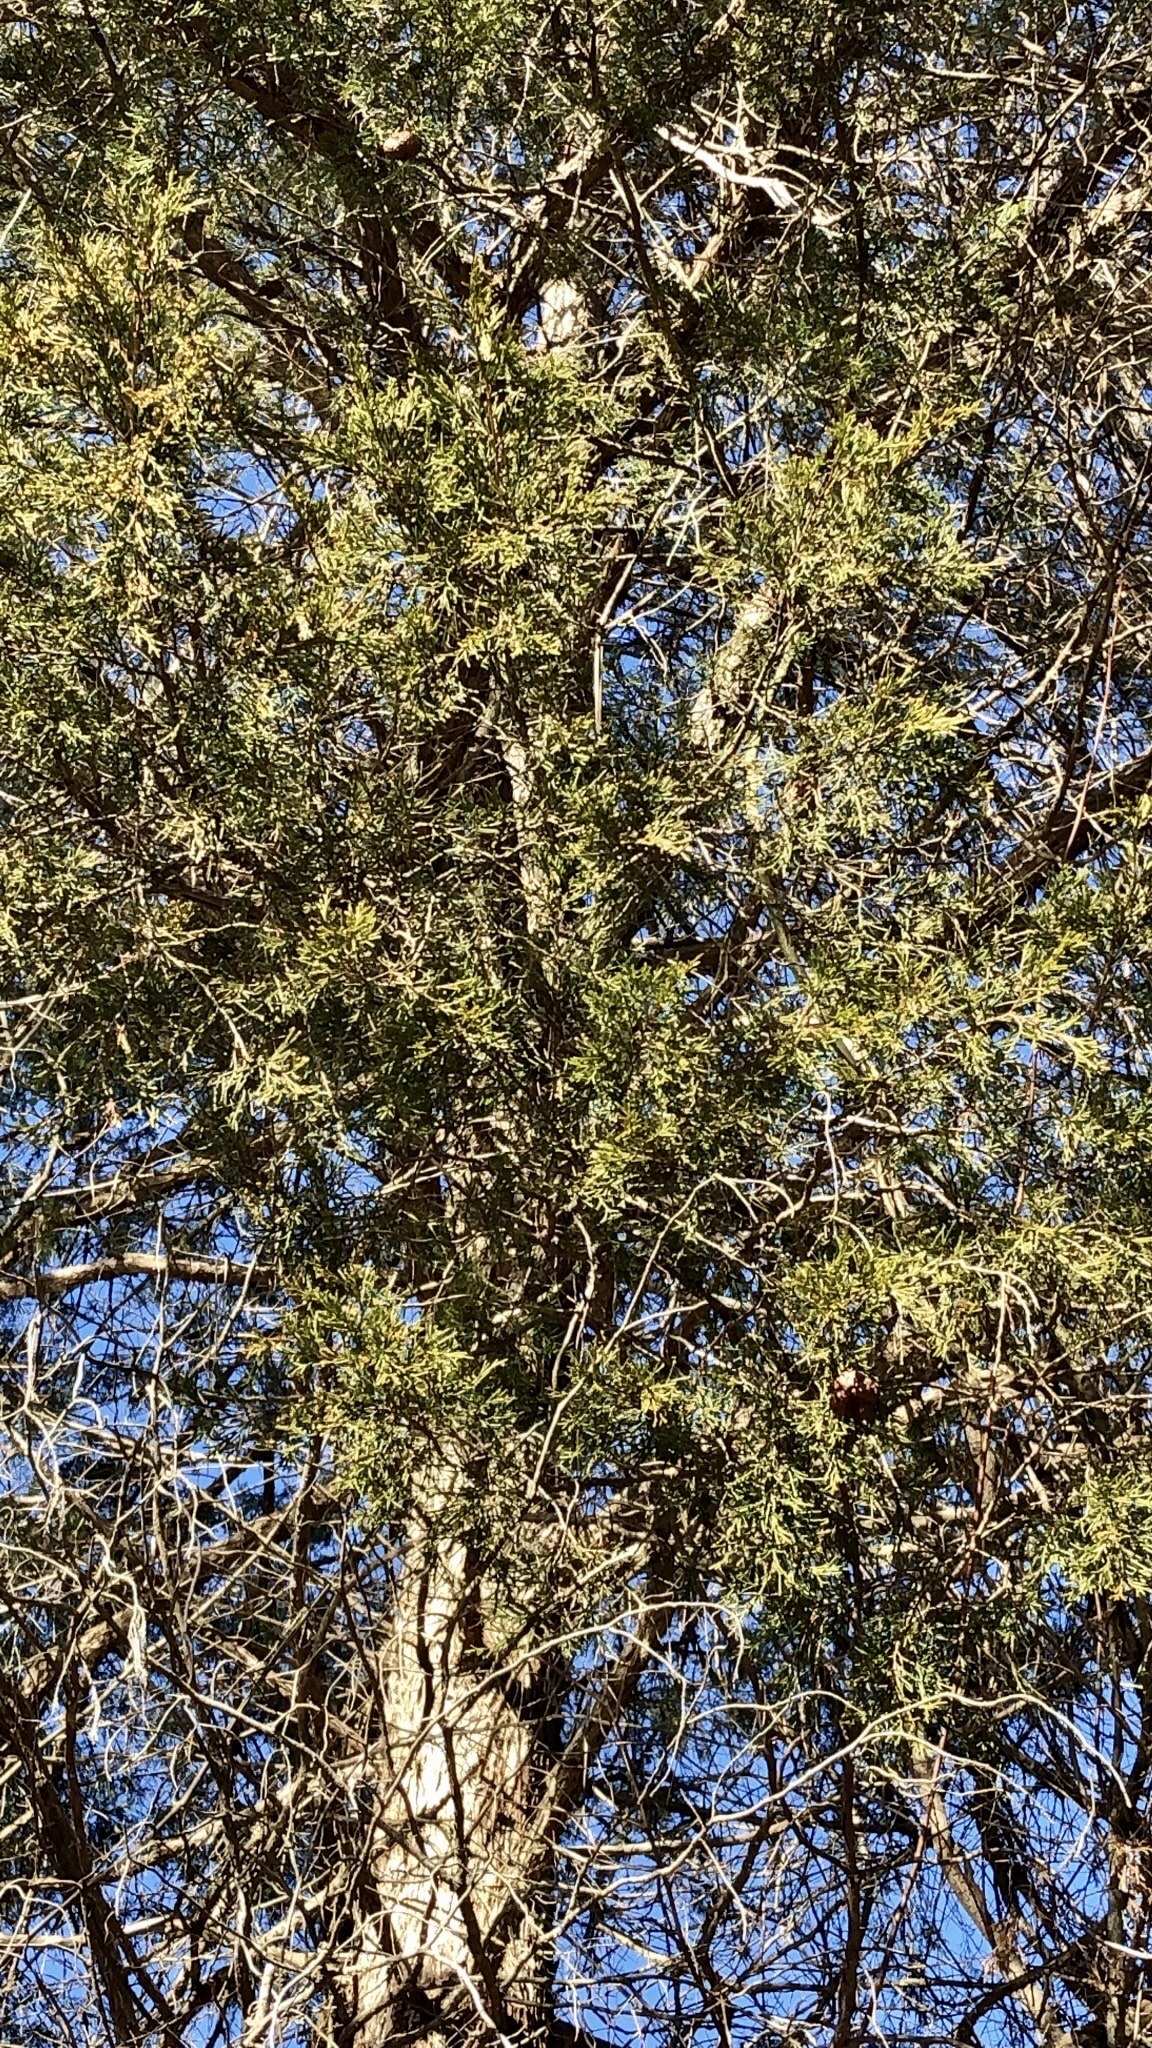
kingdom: Plantae
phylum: Tracheophyta
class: Pinopsida
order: Pinales
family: Cupressaceae
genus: Juniperus
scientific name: Juniperus virginiana
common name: Red juniper
